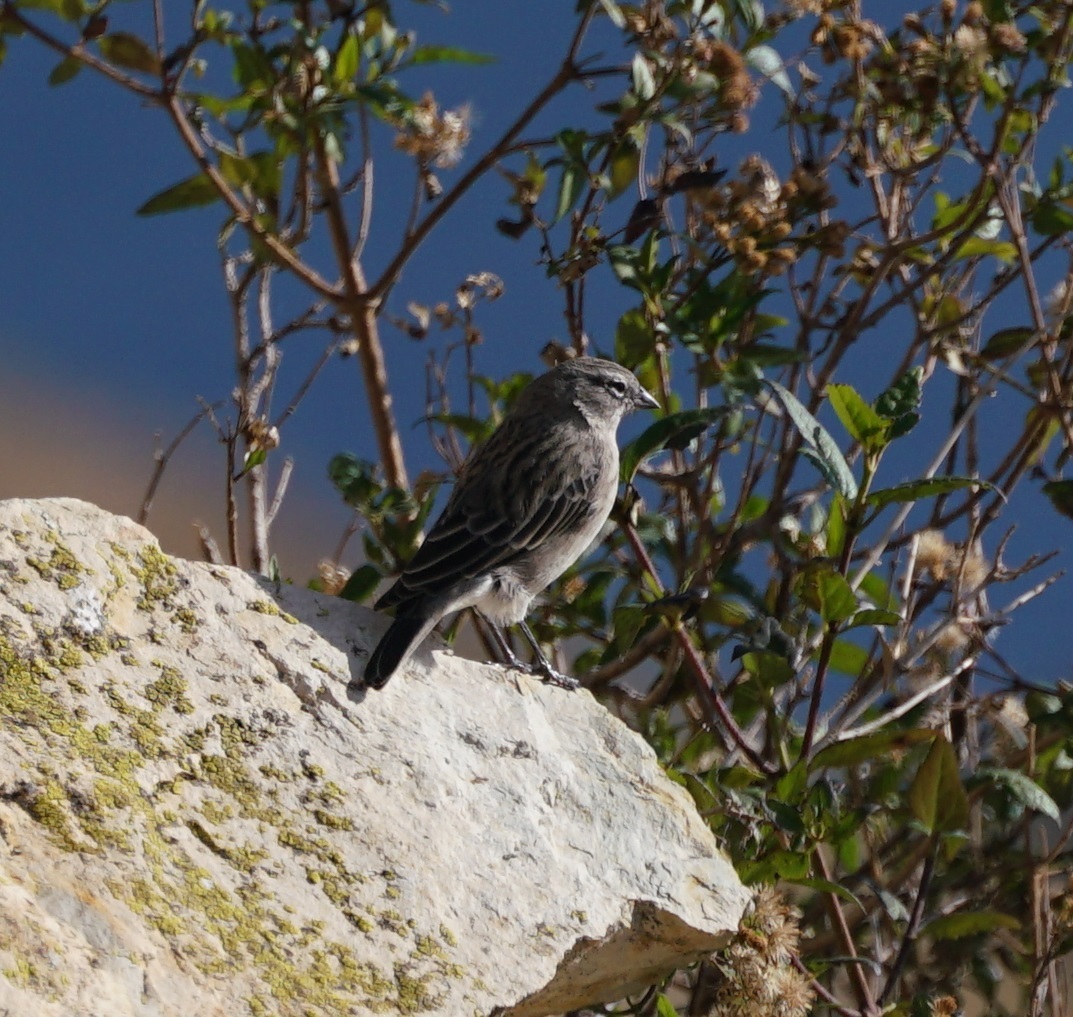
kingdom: Animalia
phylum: Chordata
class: Aves
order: Passeriformes
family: Thraupidae
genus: Geospizopsis
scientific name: Geospizopsis plebejus
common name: Ash-breasted sierra-finch
